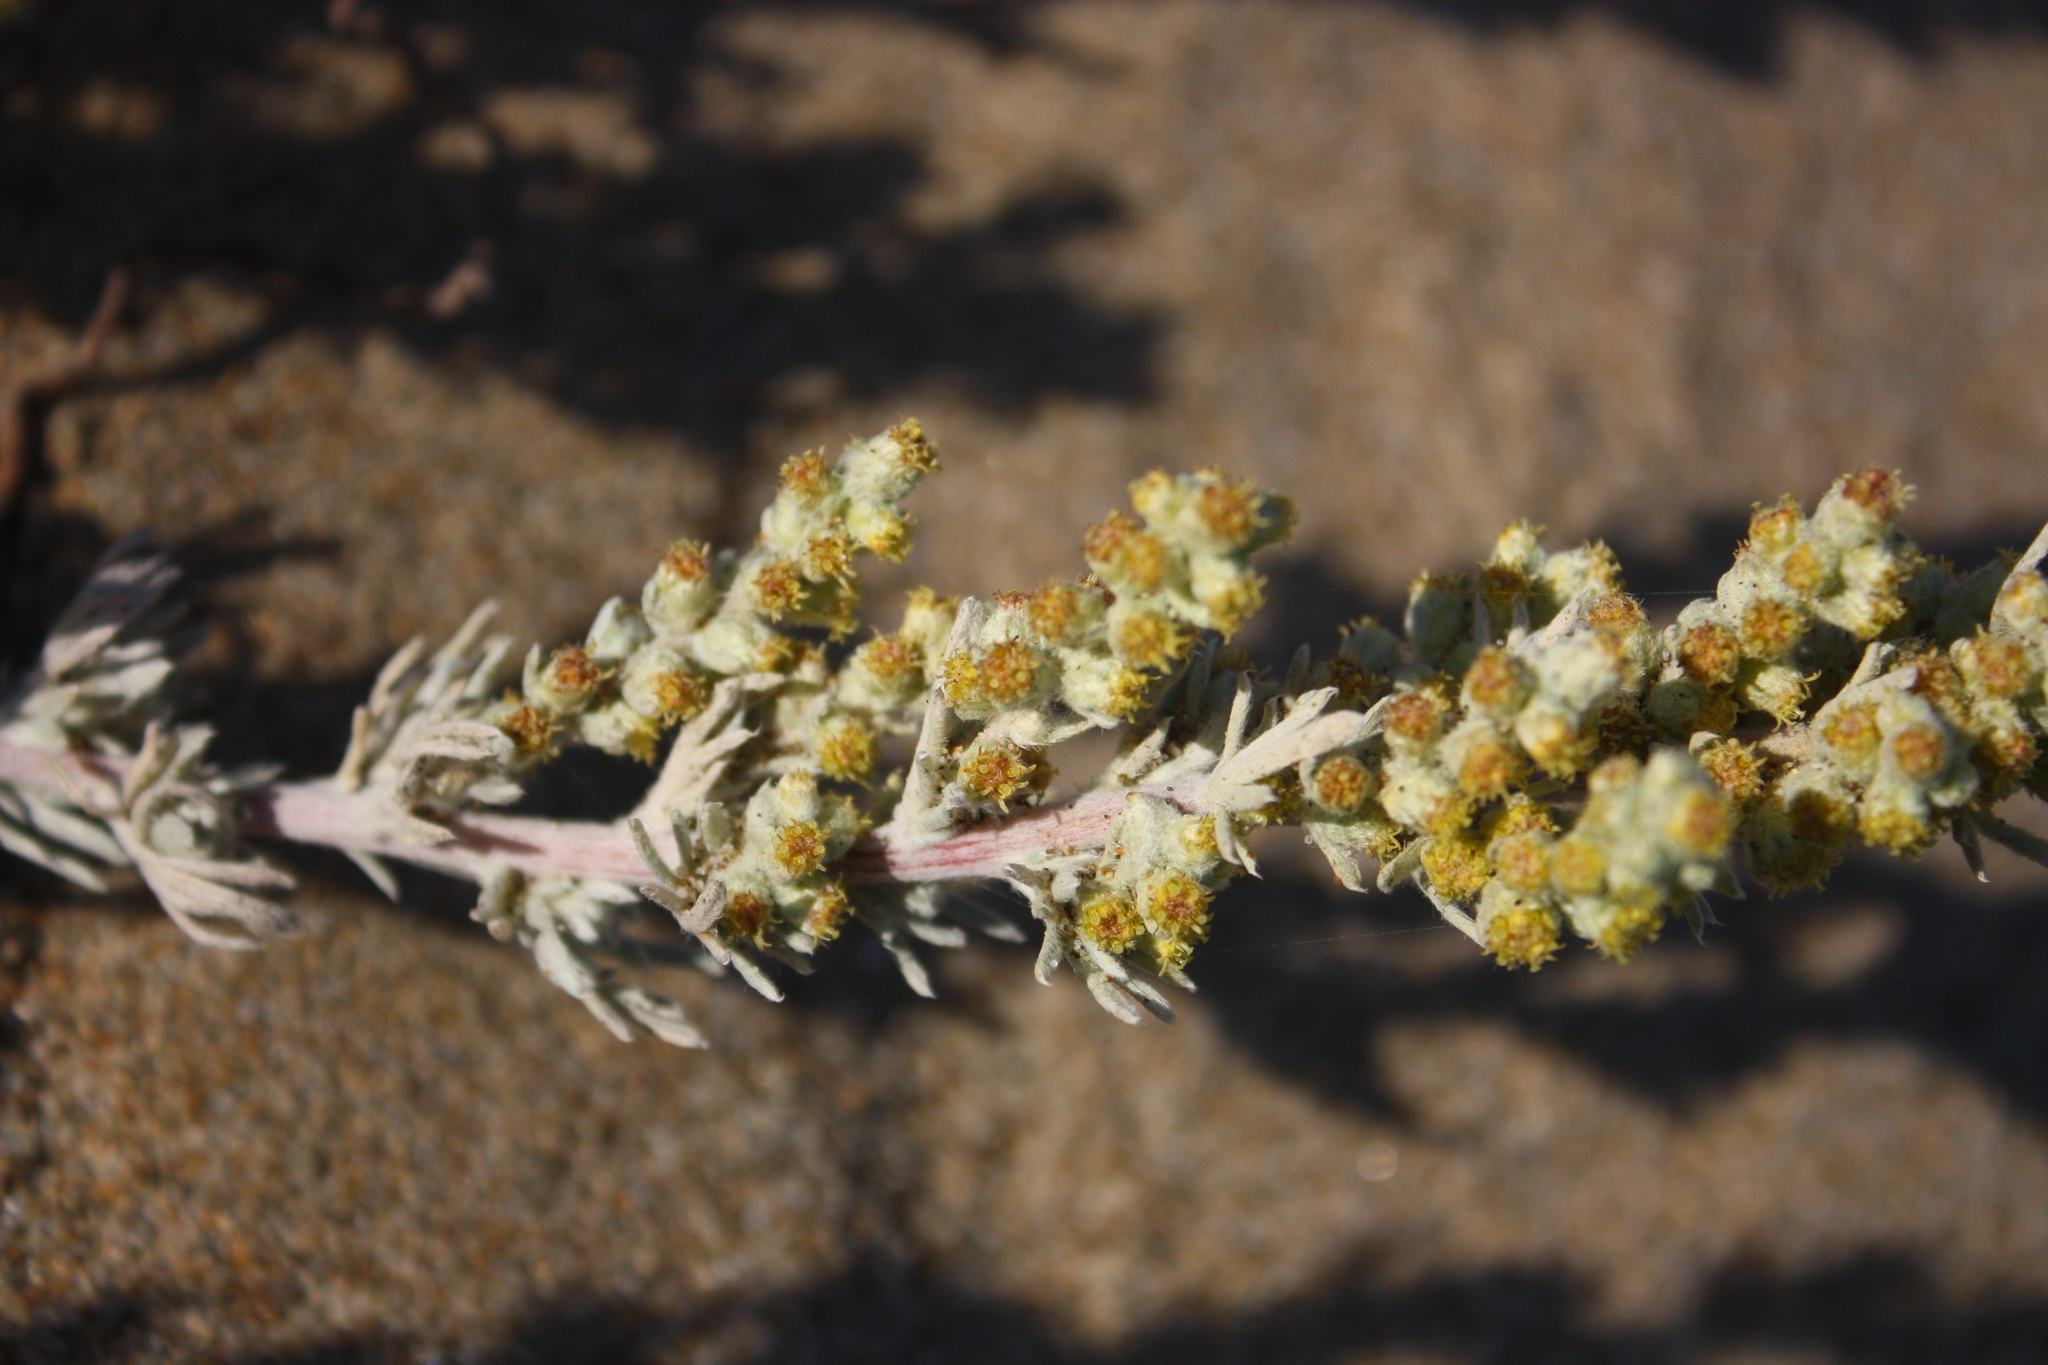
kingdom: Plantae
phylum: Tracheophyta
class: Magnoliopsida
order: Asterales
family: Asteraceae
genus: Artemisia
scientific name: Artemisia pycnocephala
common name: Coastal sagewort
